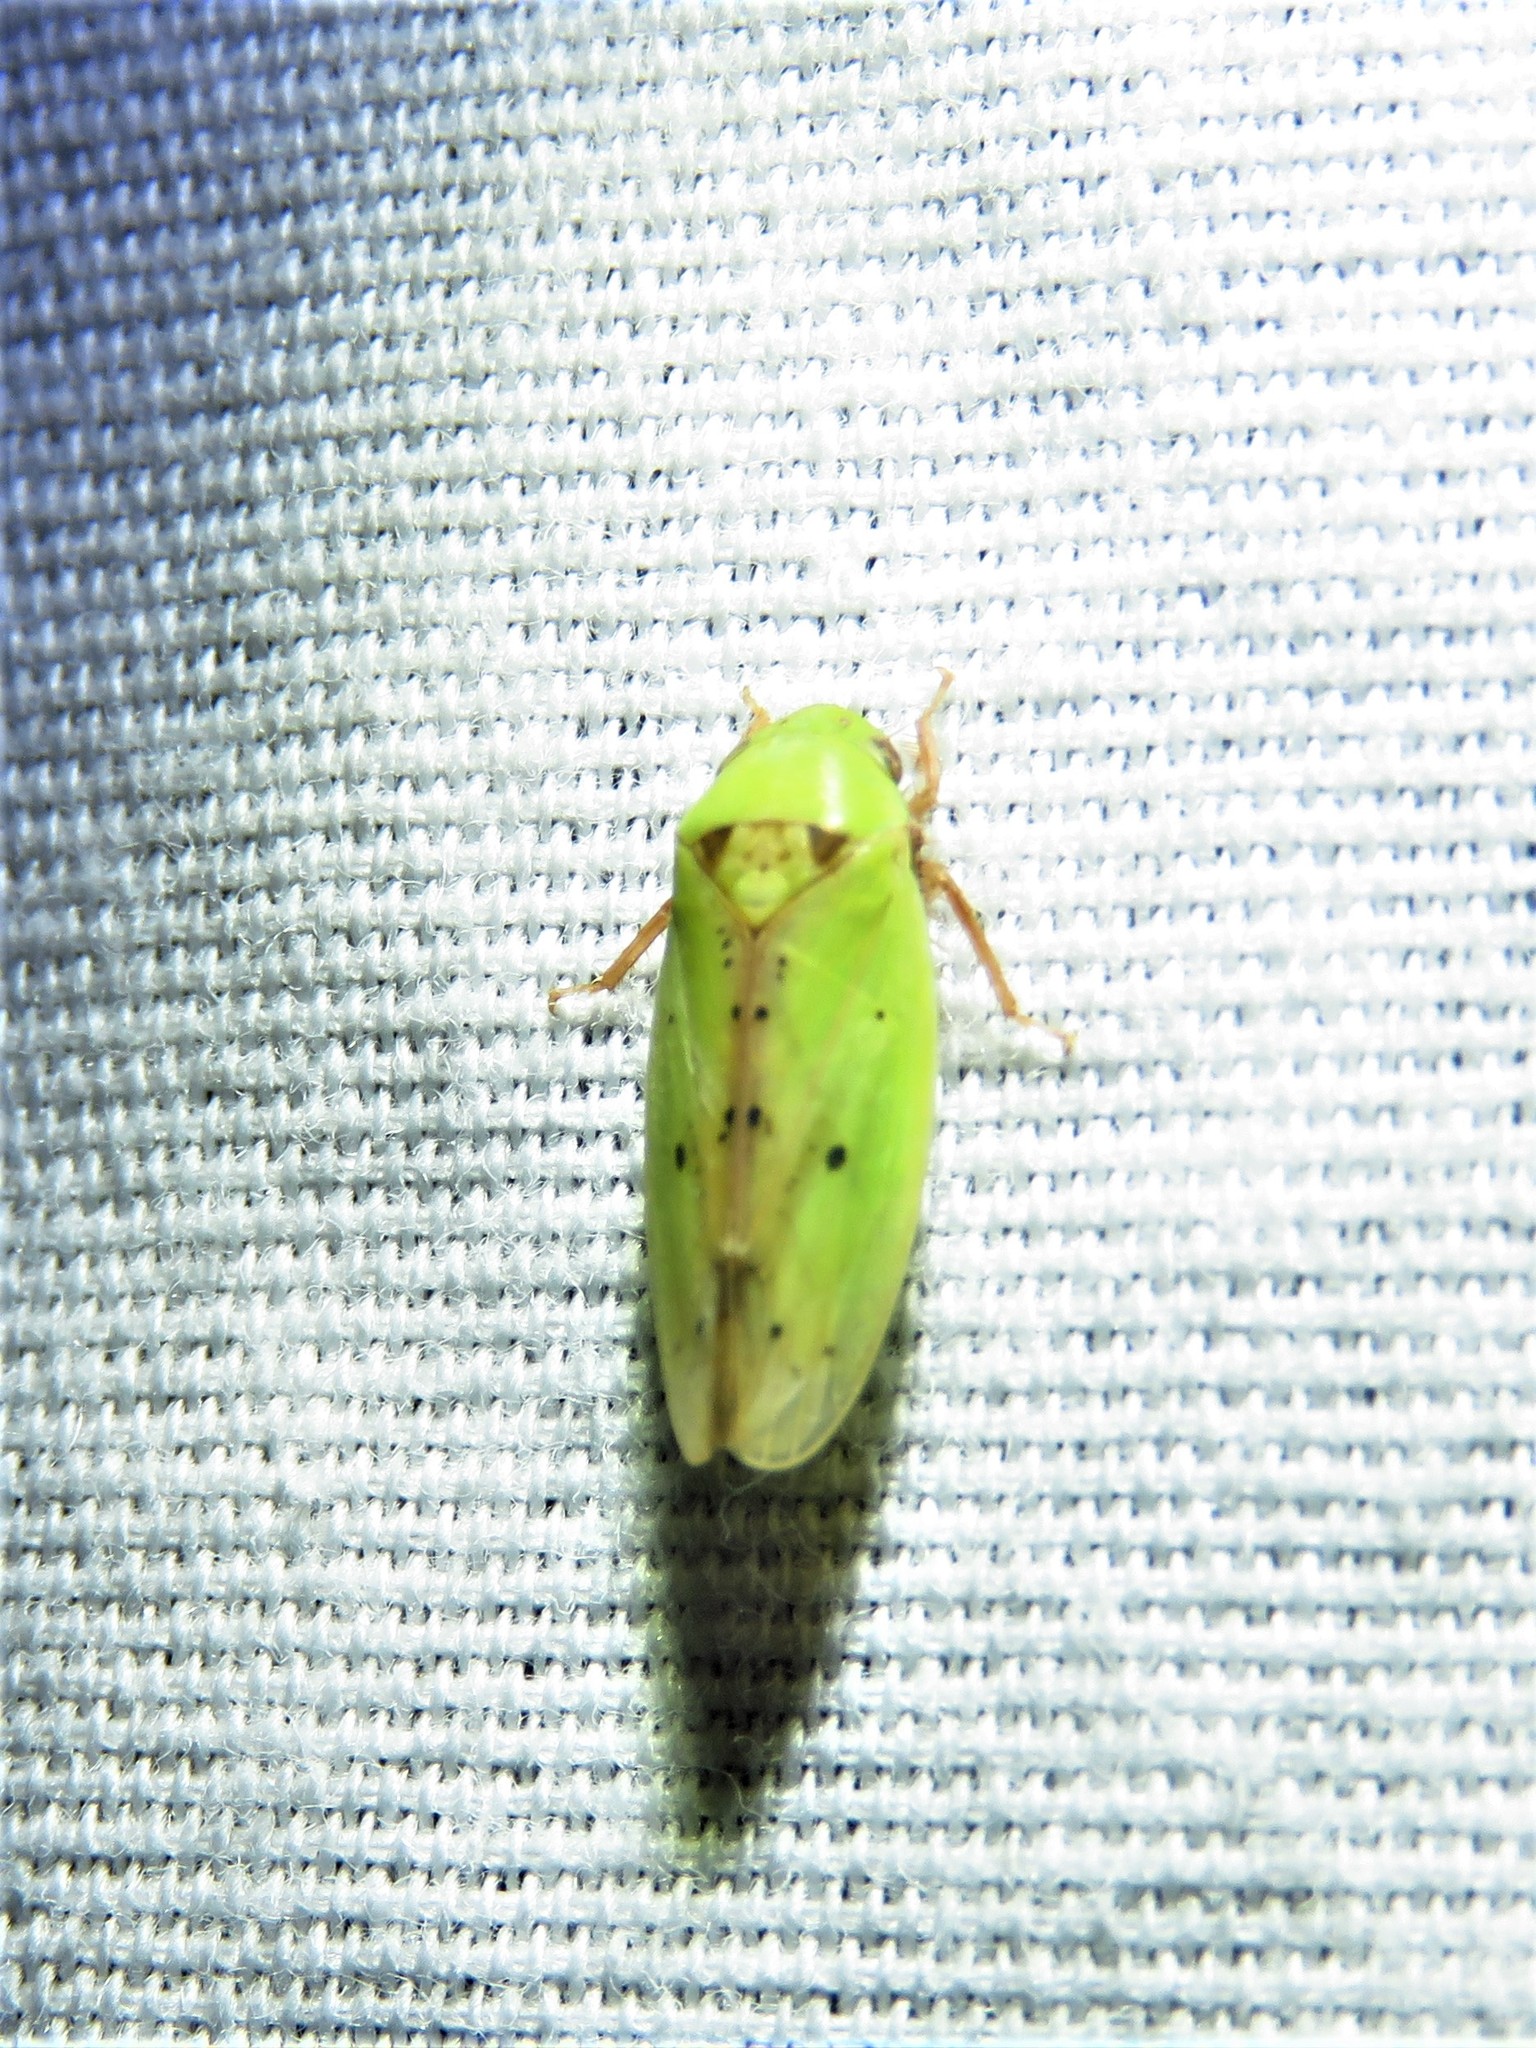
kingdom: Animalia
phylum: Arthropoda
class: Insecta
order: Hemiptera
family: Cicadellidae
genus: Ponana
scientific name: Ponana
